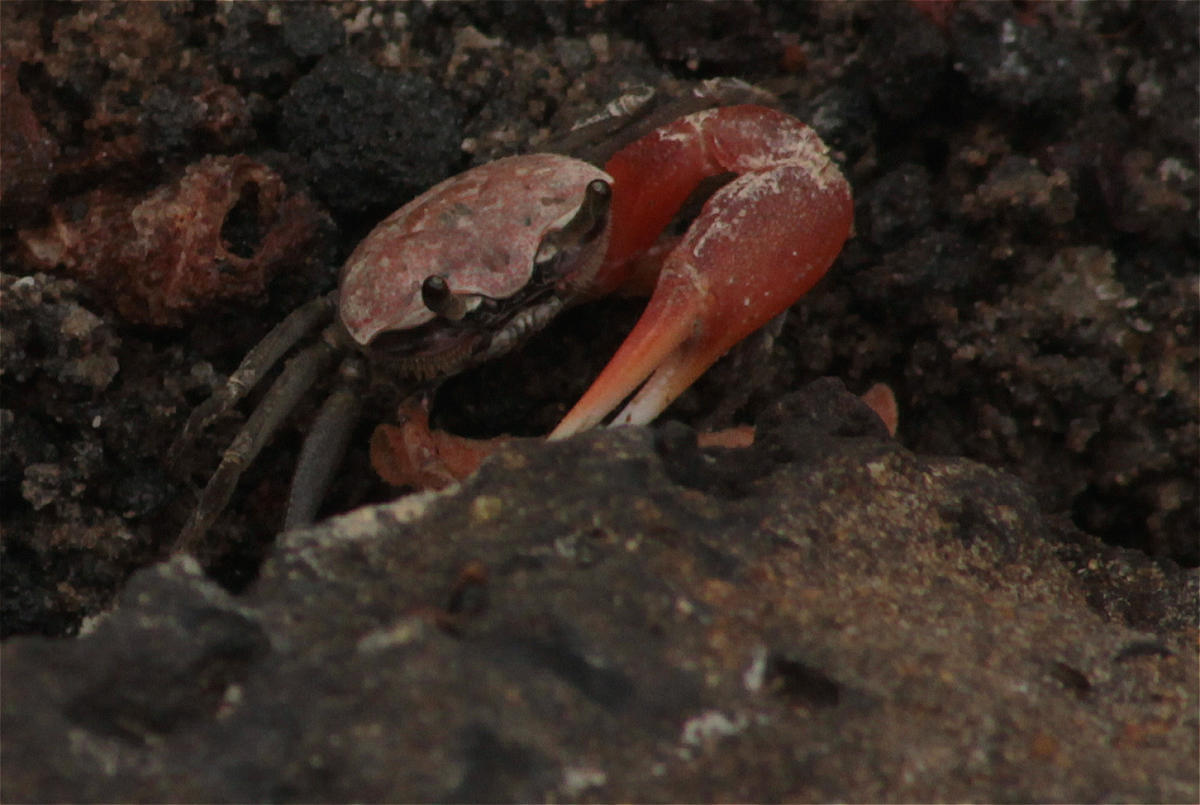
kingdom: Animalia
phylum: Arthropoda
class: Malacostraca
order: Decapoda
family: Ocypodidae
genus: Minuca
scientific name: Minuca galapagensis
